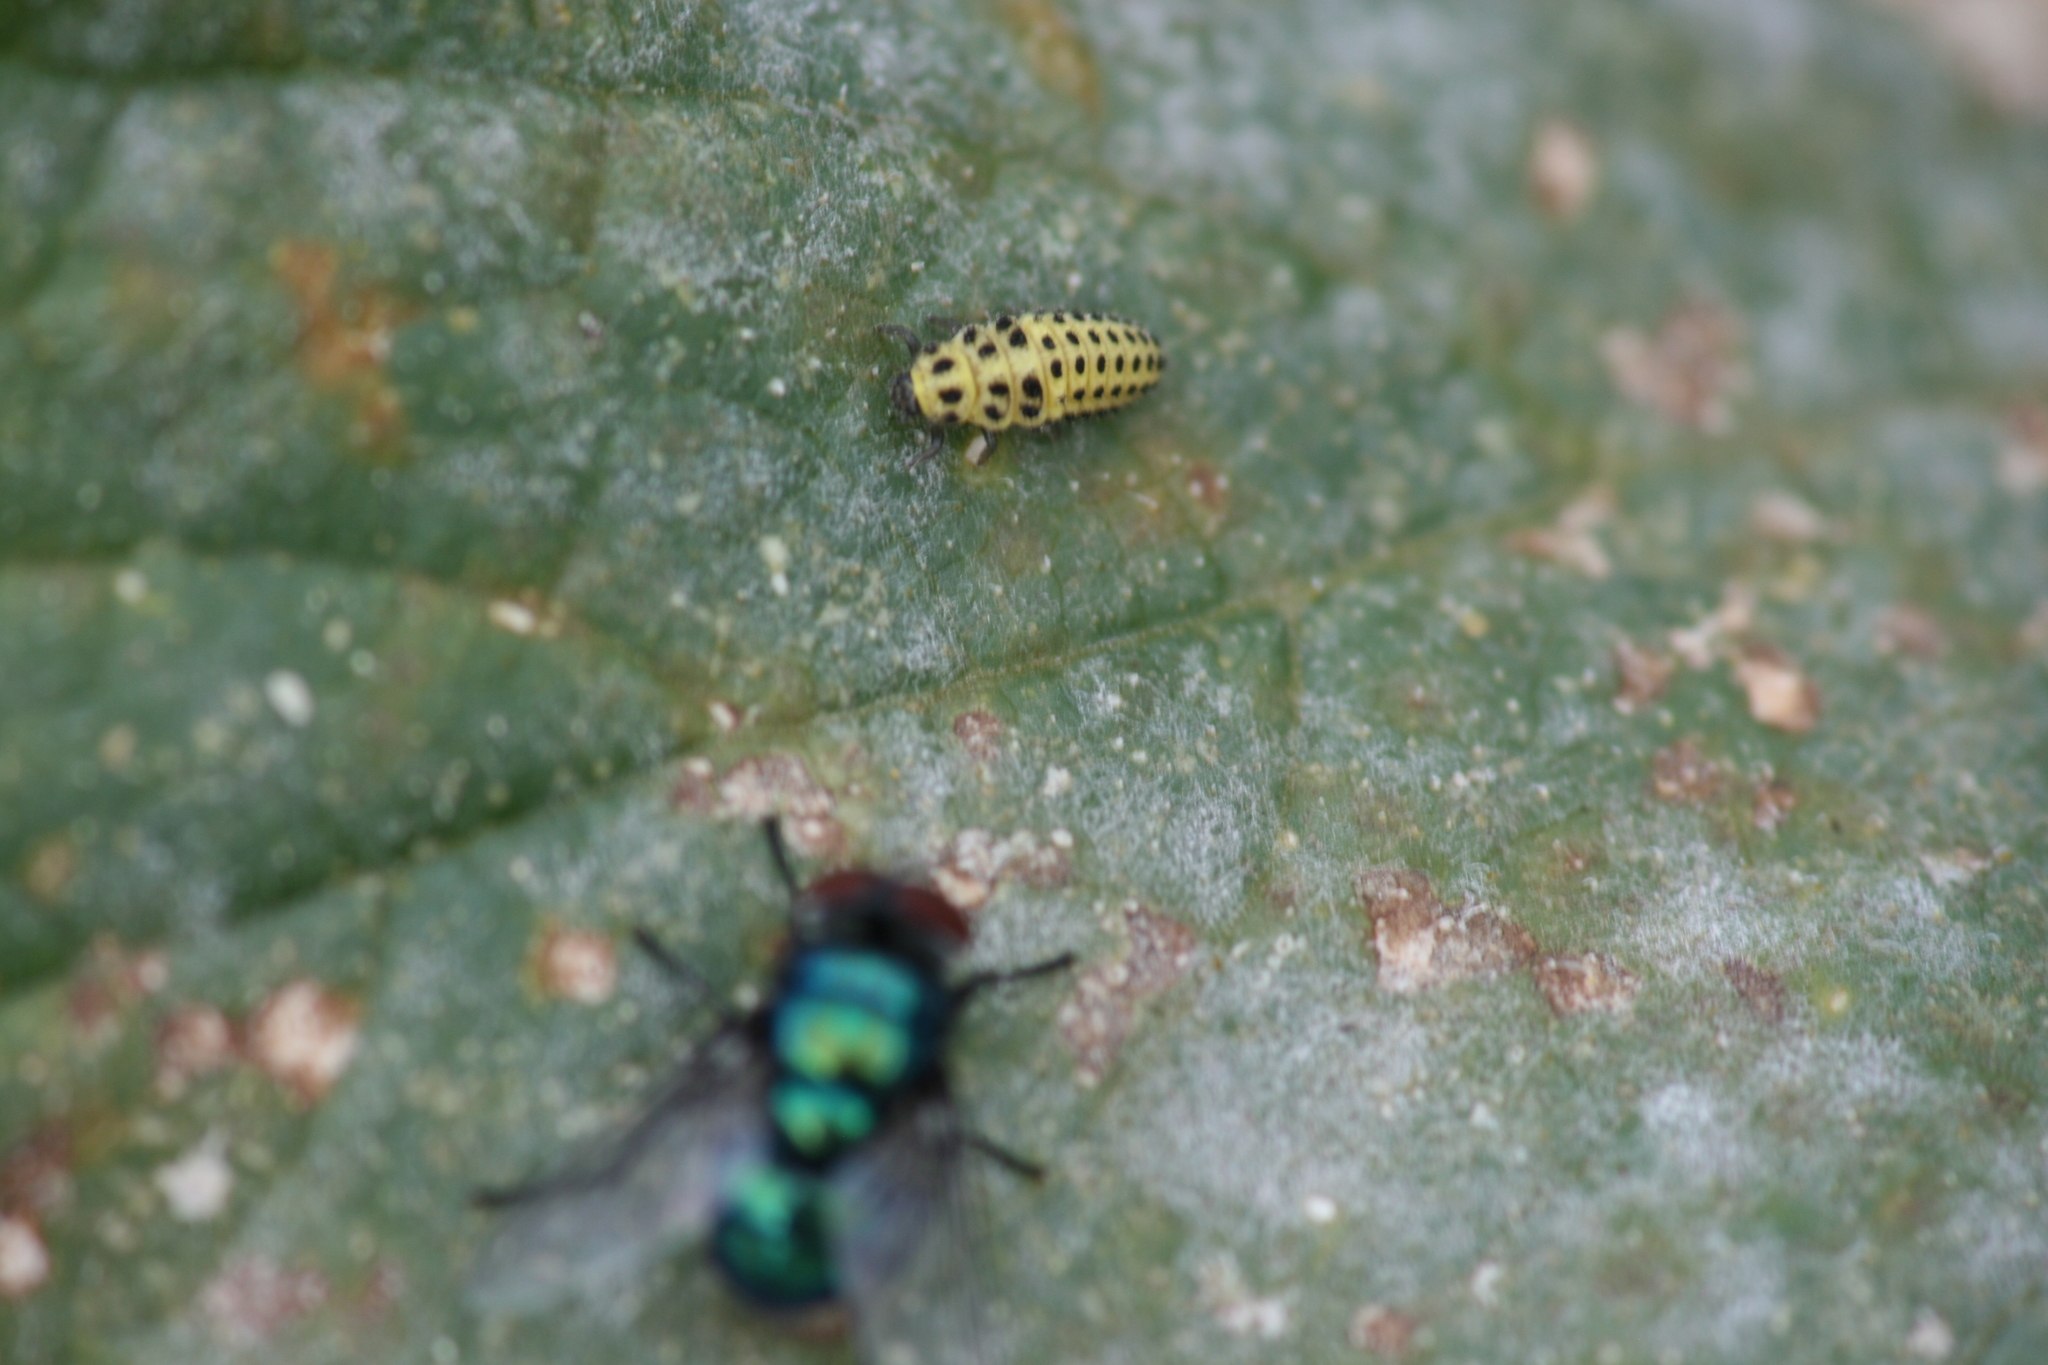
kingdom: Animalia
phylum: Arthropoda
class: Insecta
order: Coleoptera
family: Coccinellidae
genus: Psyllobora
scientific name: Psyllobora vigintiduopunctata
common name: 22-spot ladybird
